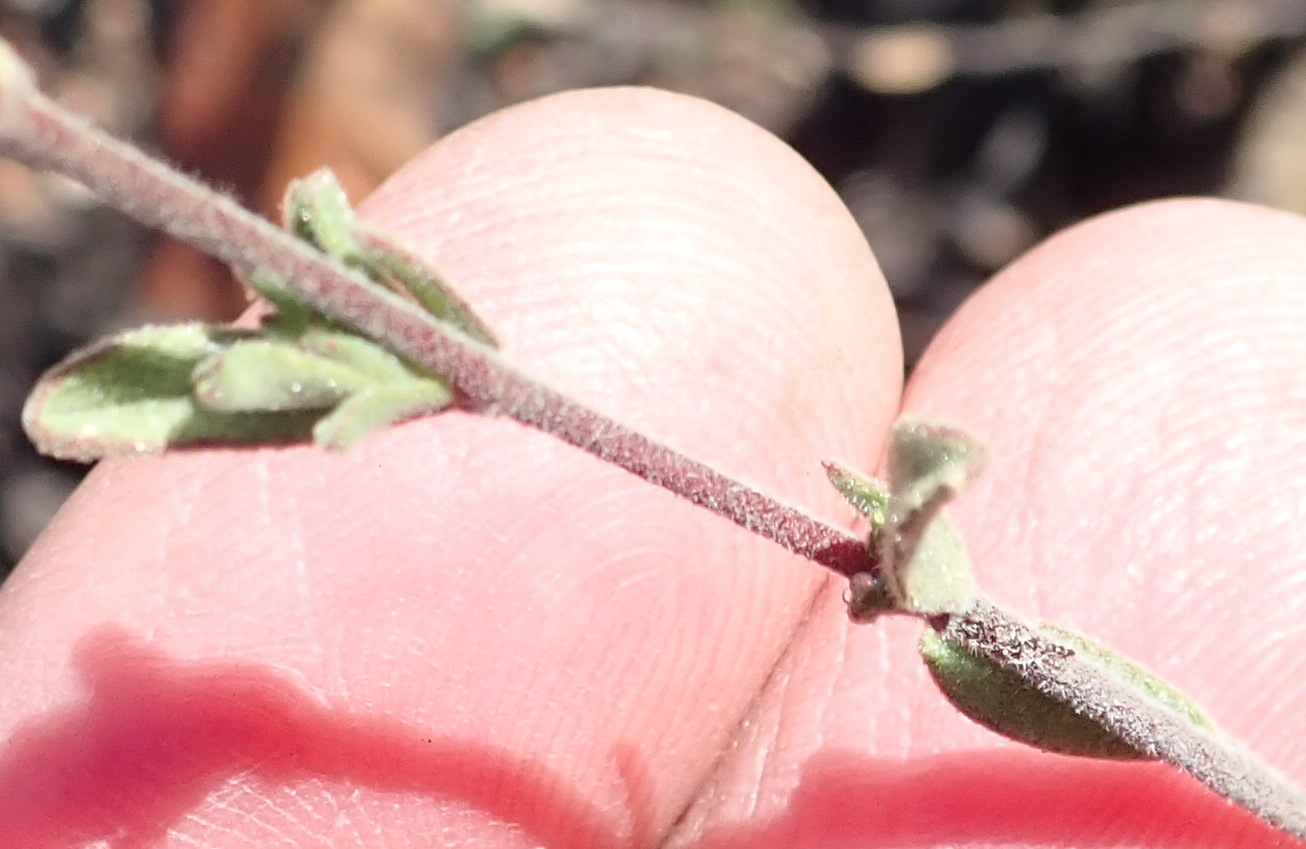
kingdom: Plantae
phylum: Tracheophyta
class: Magnoliopsida
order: Malvales
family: Malvaceae
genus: Hermannia
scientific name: Hermannia flammula
